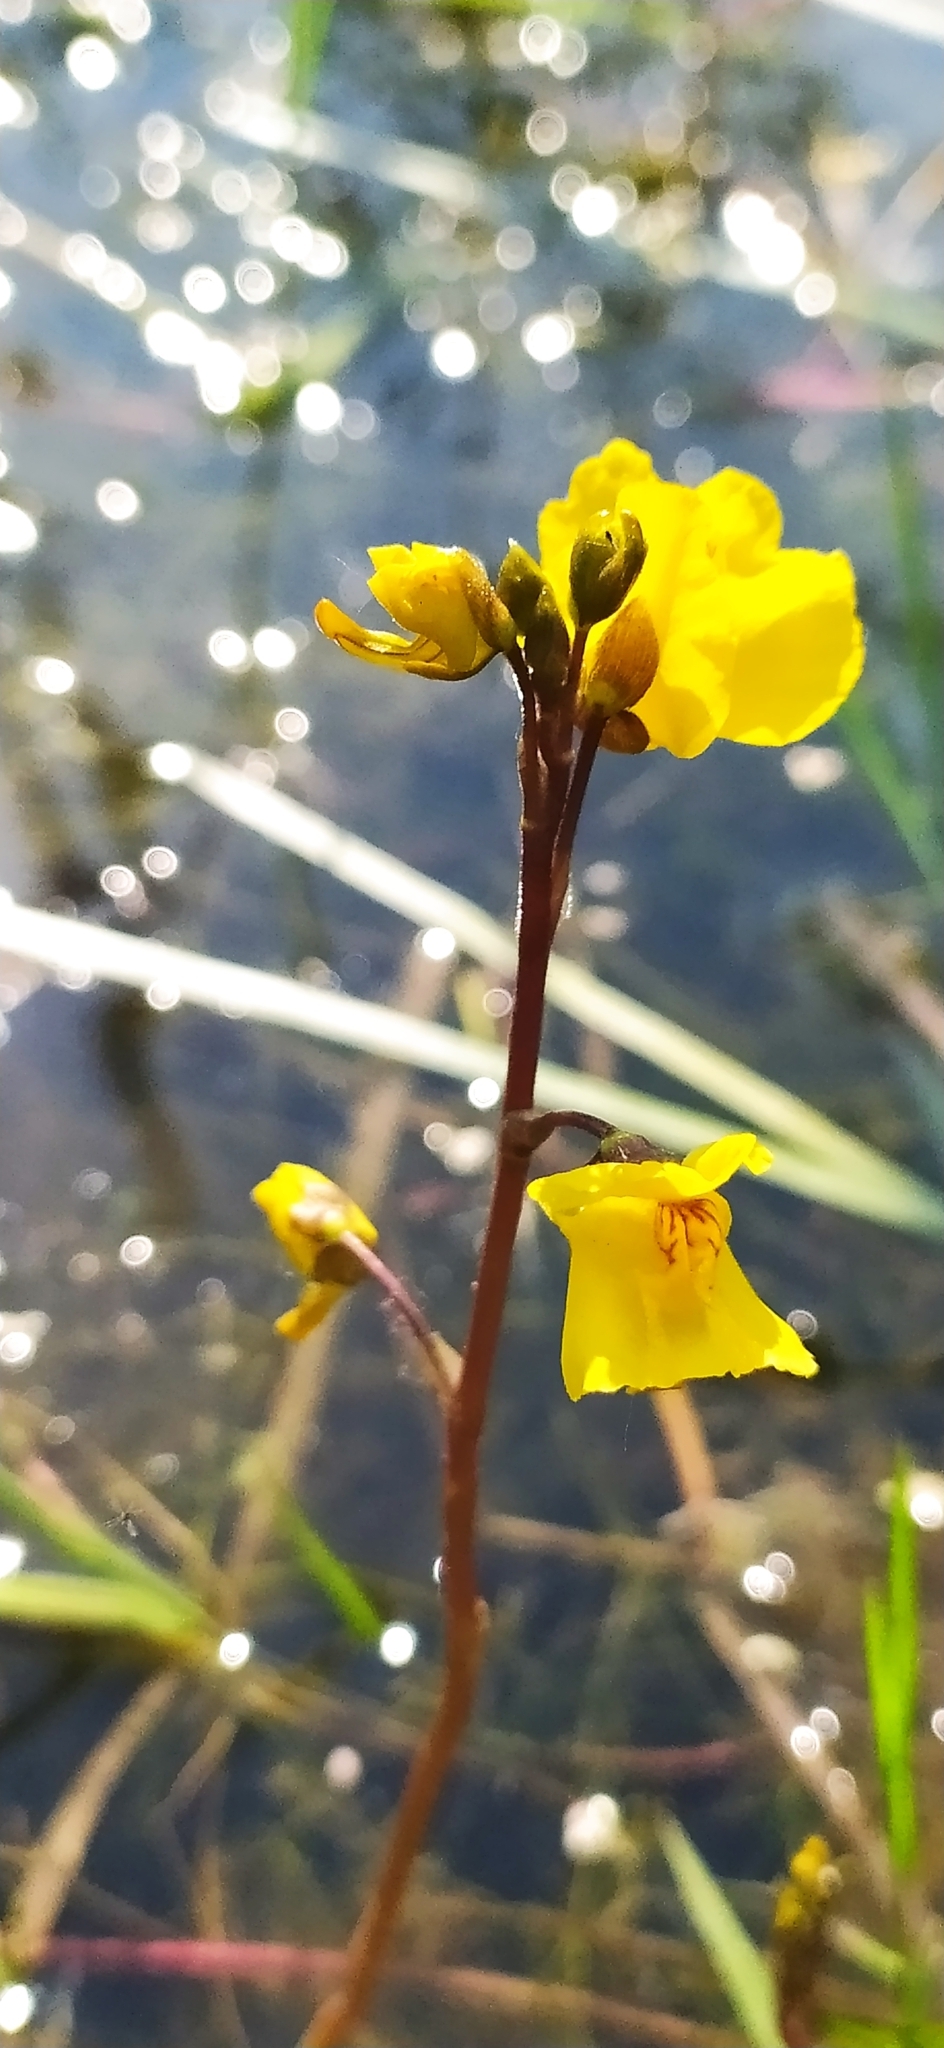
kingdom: Plantae
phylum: Tracheophyta
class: Magnoliopsida
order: Lamiales
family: Lentibulariaceae
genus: Utricularia
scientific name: Utricularia vulgaris
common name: Greater bladderwort
